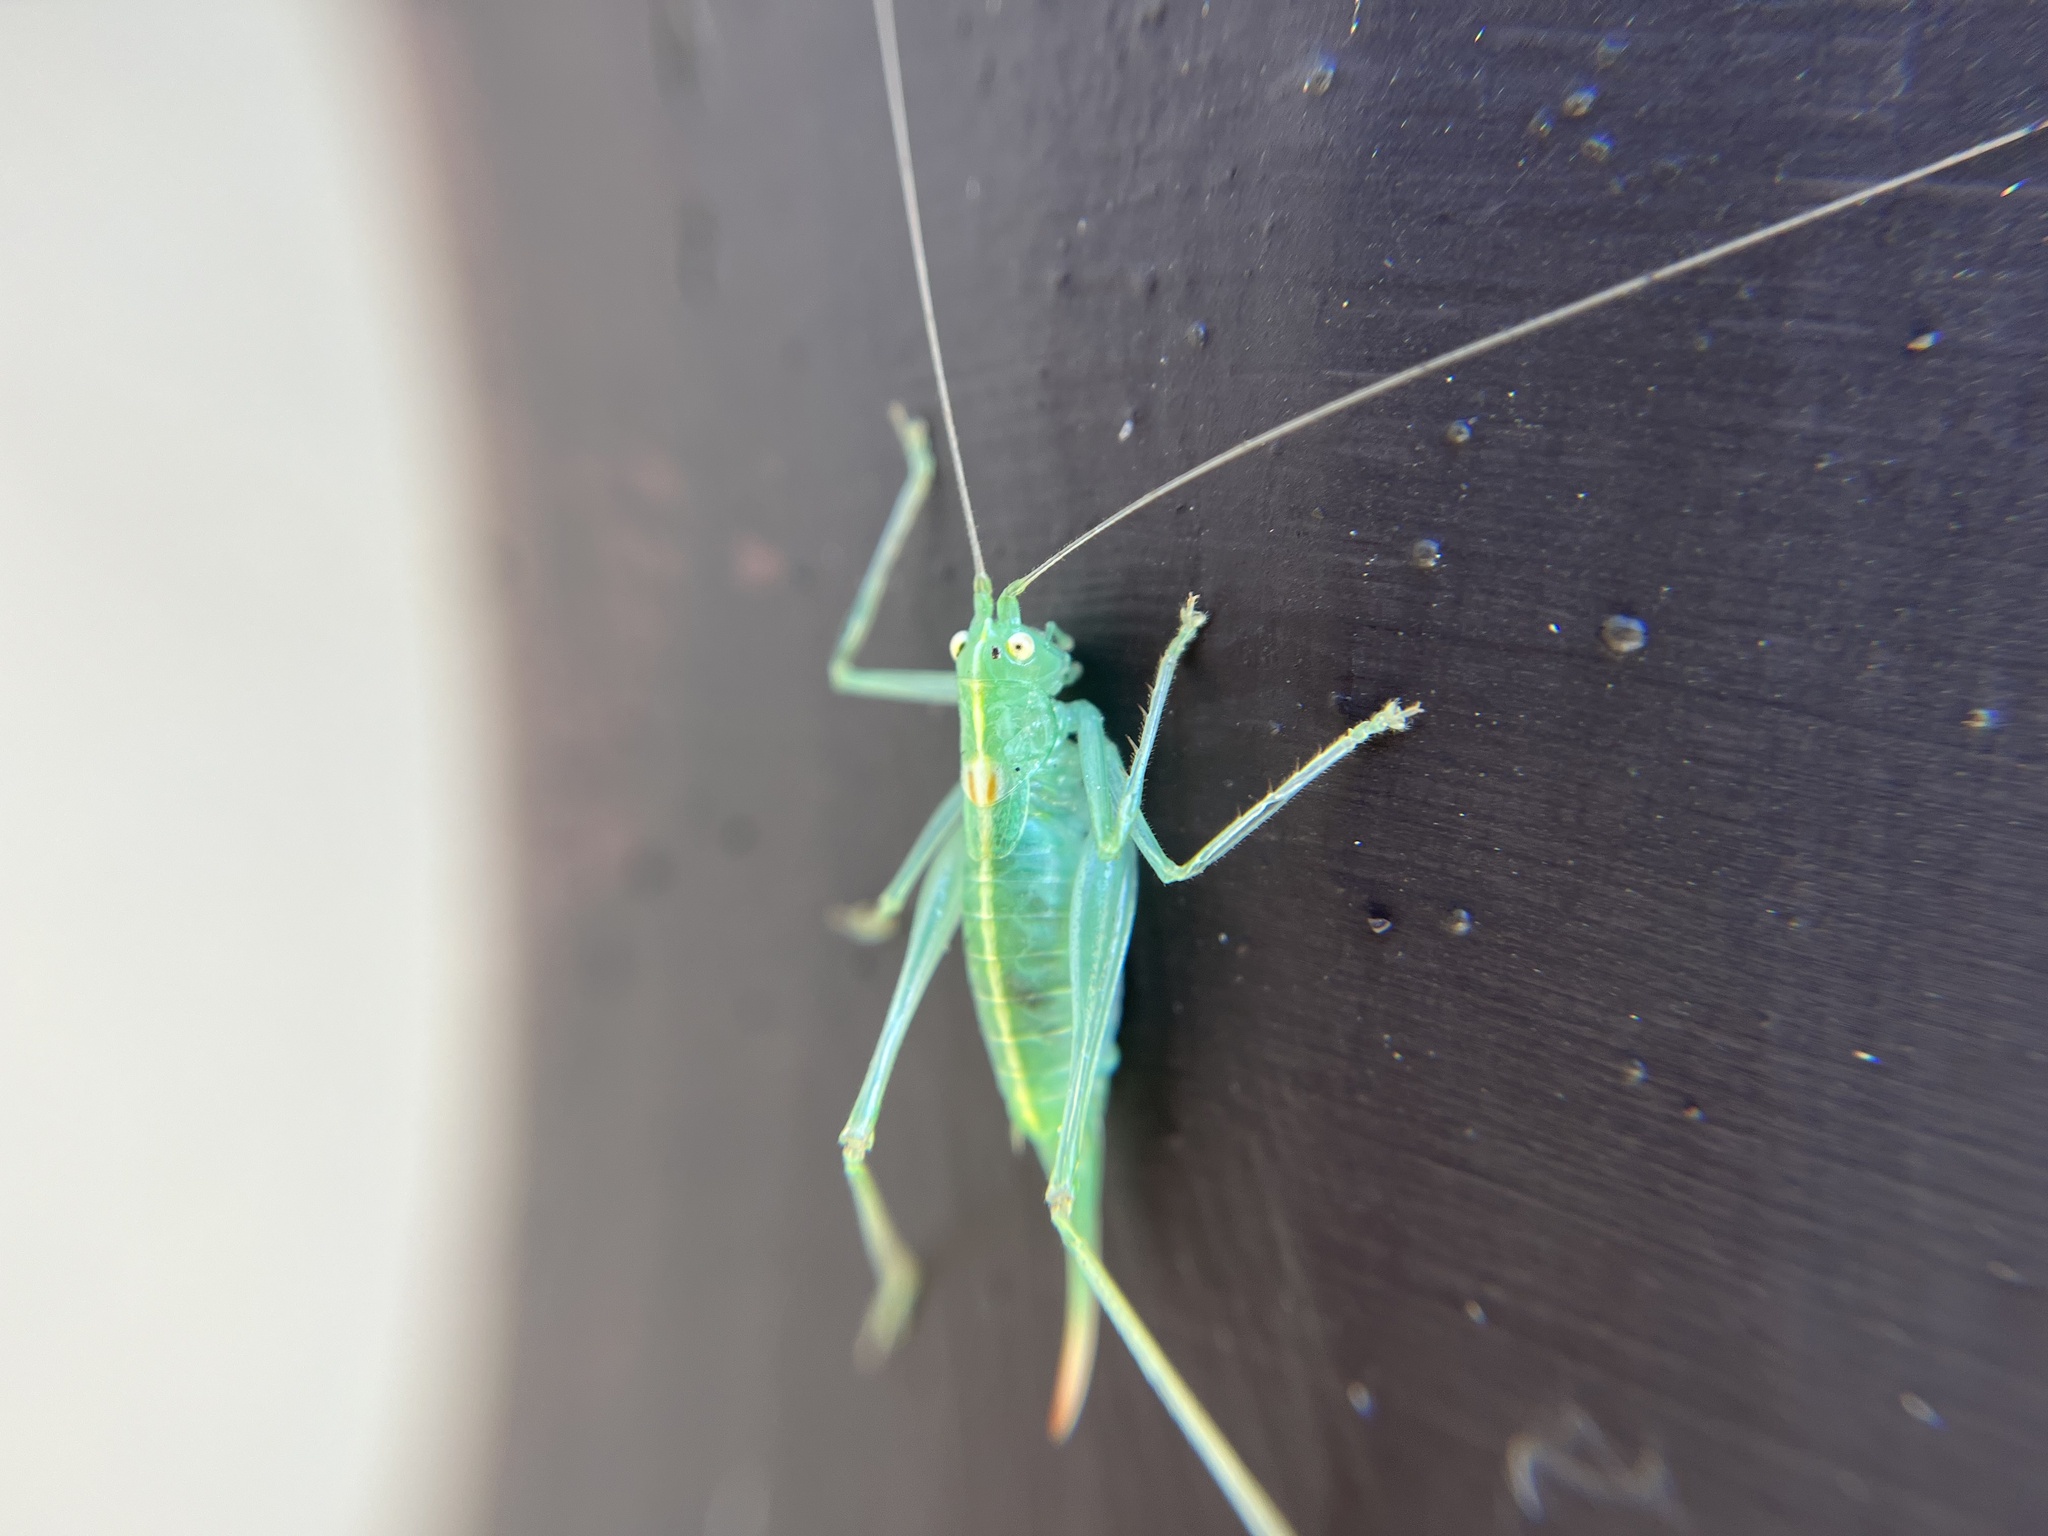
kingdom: Animalia
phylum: Arthropoda
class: Insecta
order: Orthoptera
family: Tettigoniidae
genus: Meconema
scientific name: Meconema meridionale
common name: Southern oak bush-cricket
